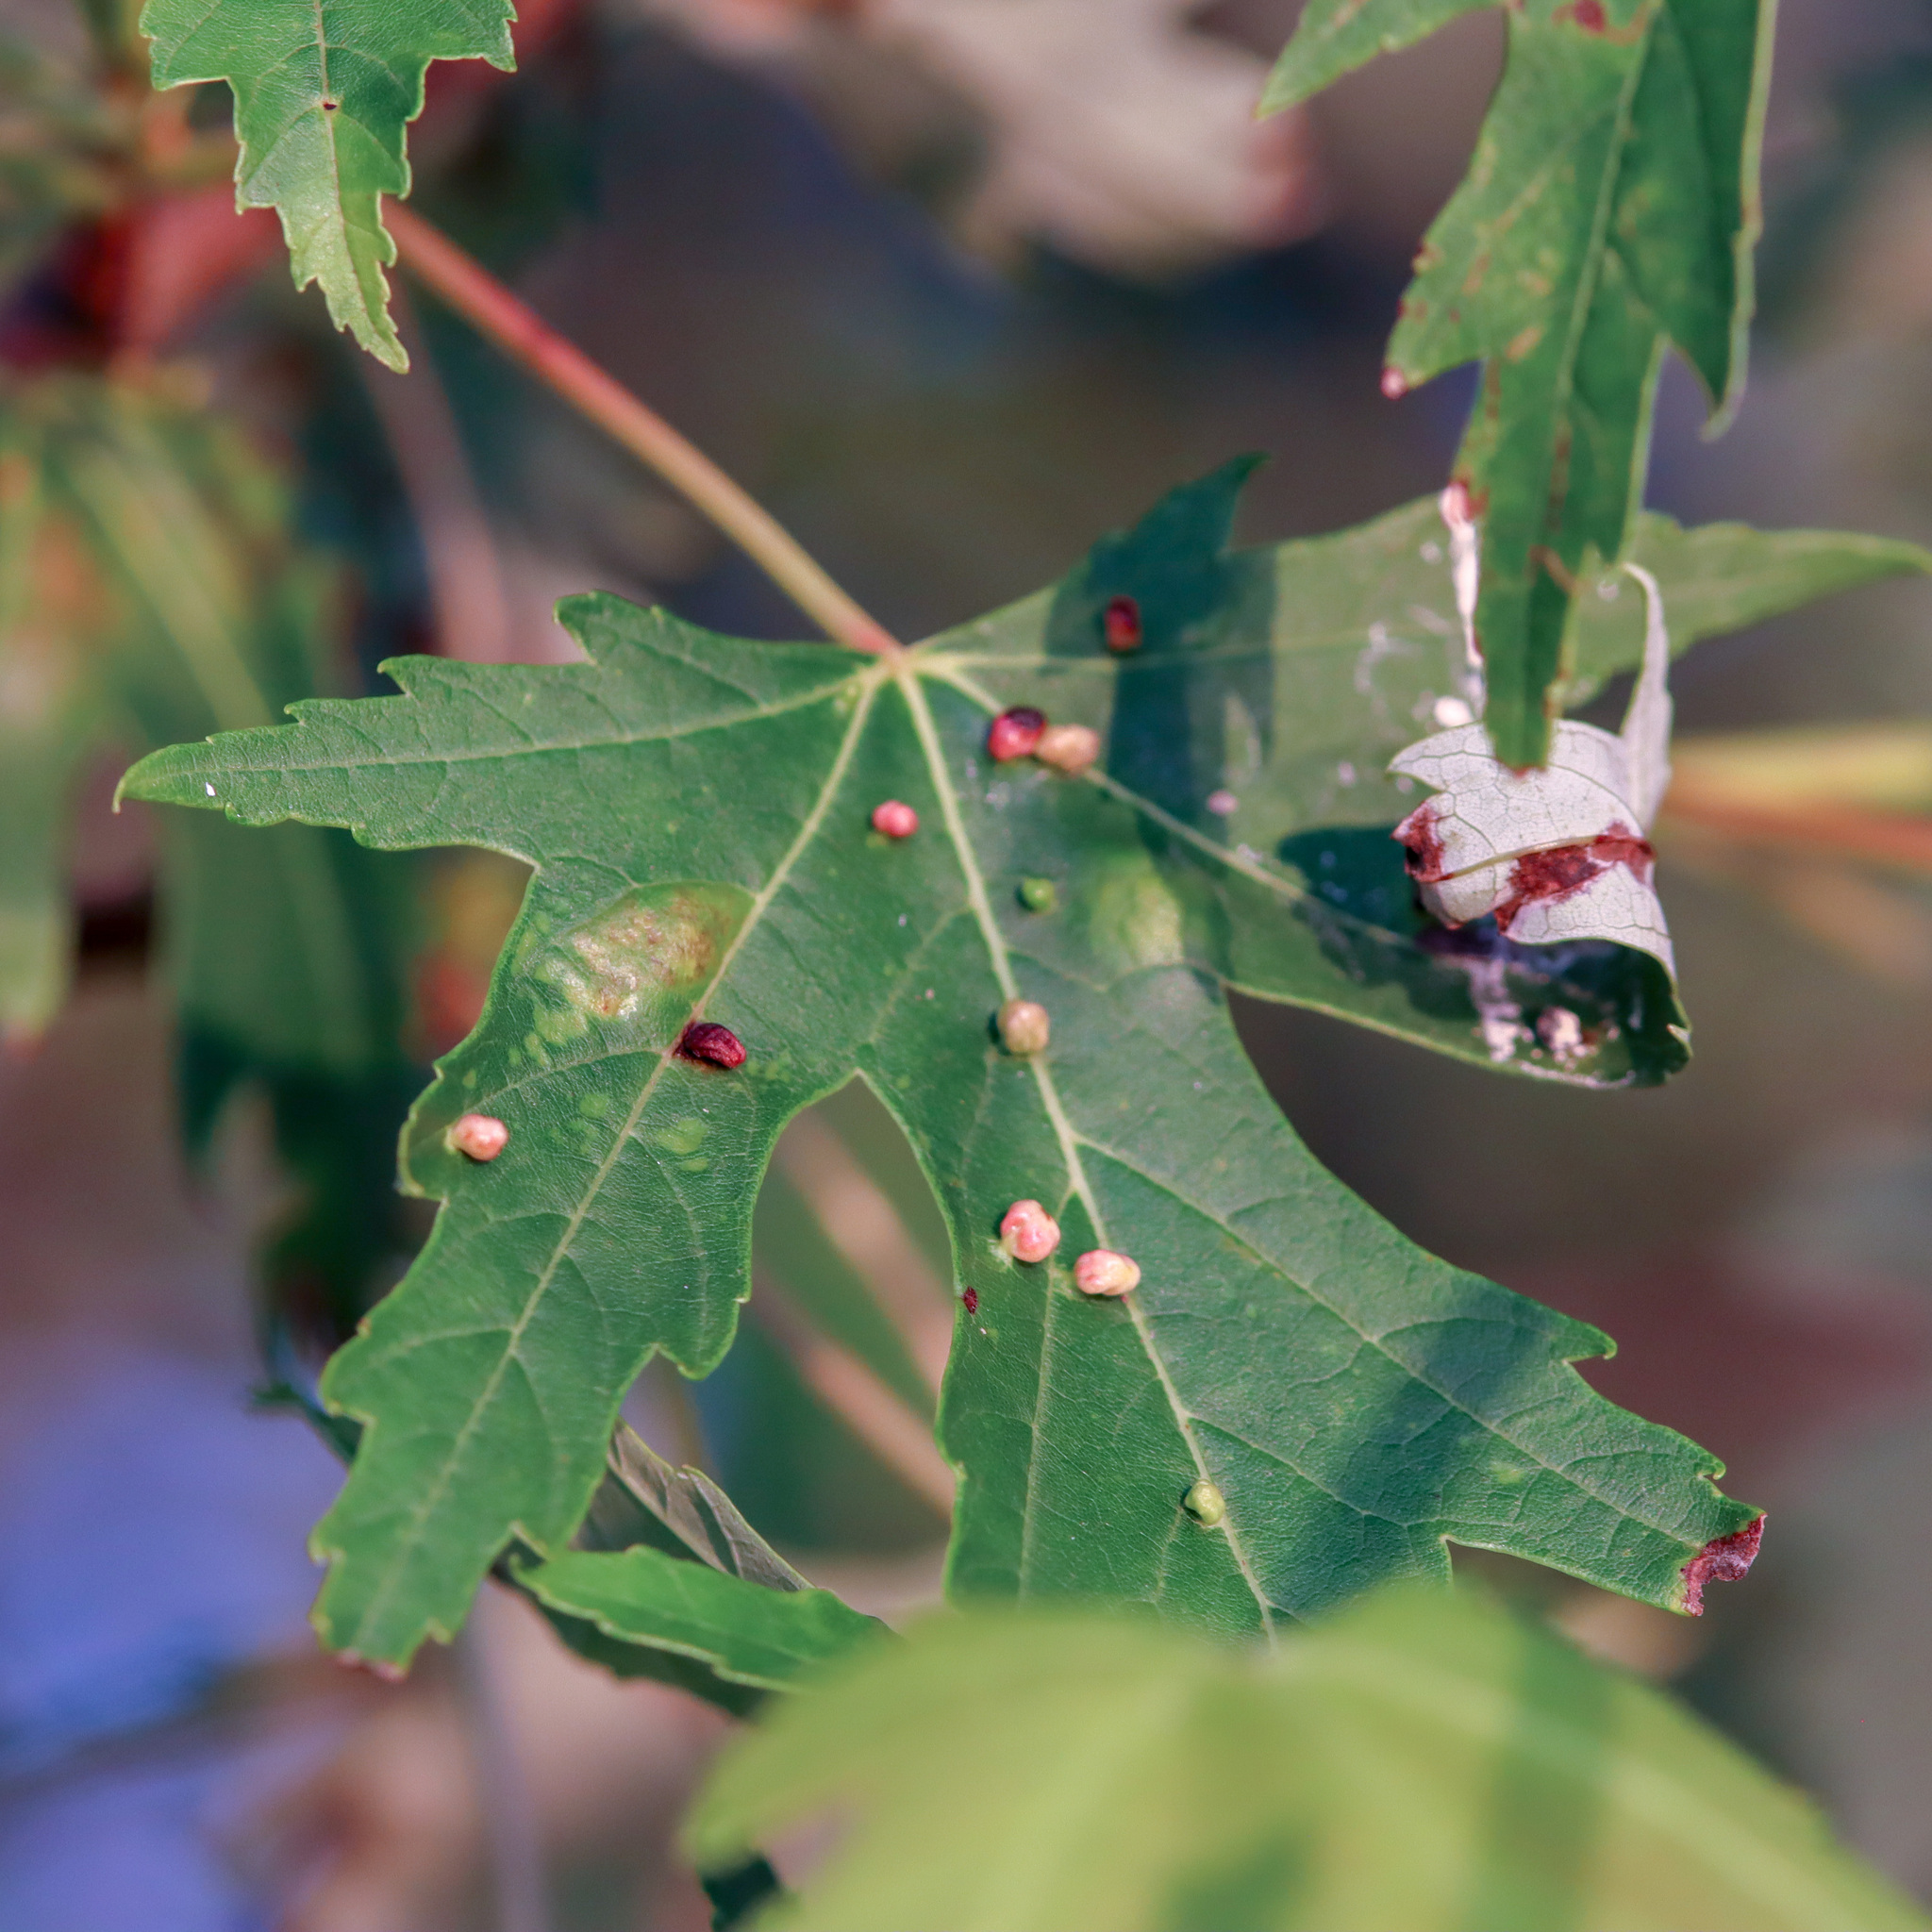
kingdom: Animalia
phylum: Arthropoda
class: Arachnida
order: Trombidiformes
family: Eriophyidae
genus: Vasates
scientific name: Vasates quadripedes
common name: Maple bladder gall mite
